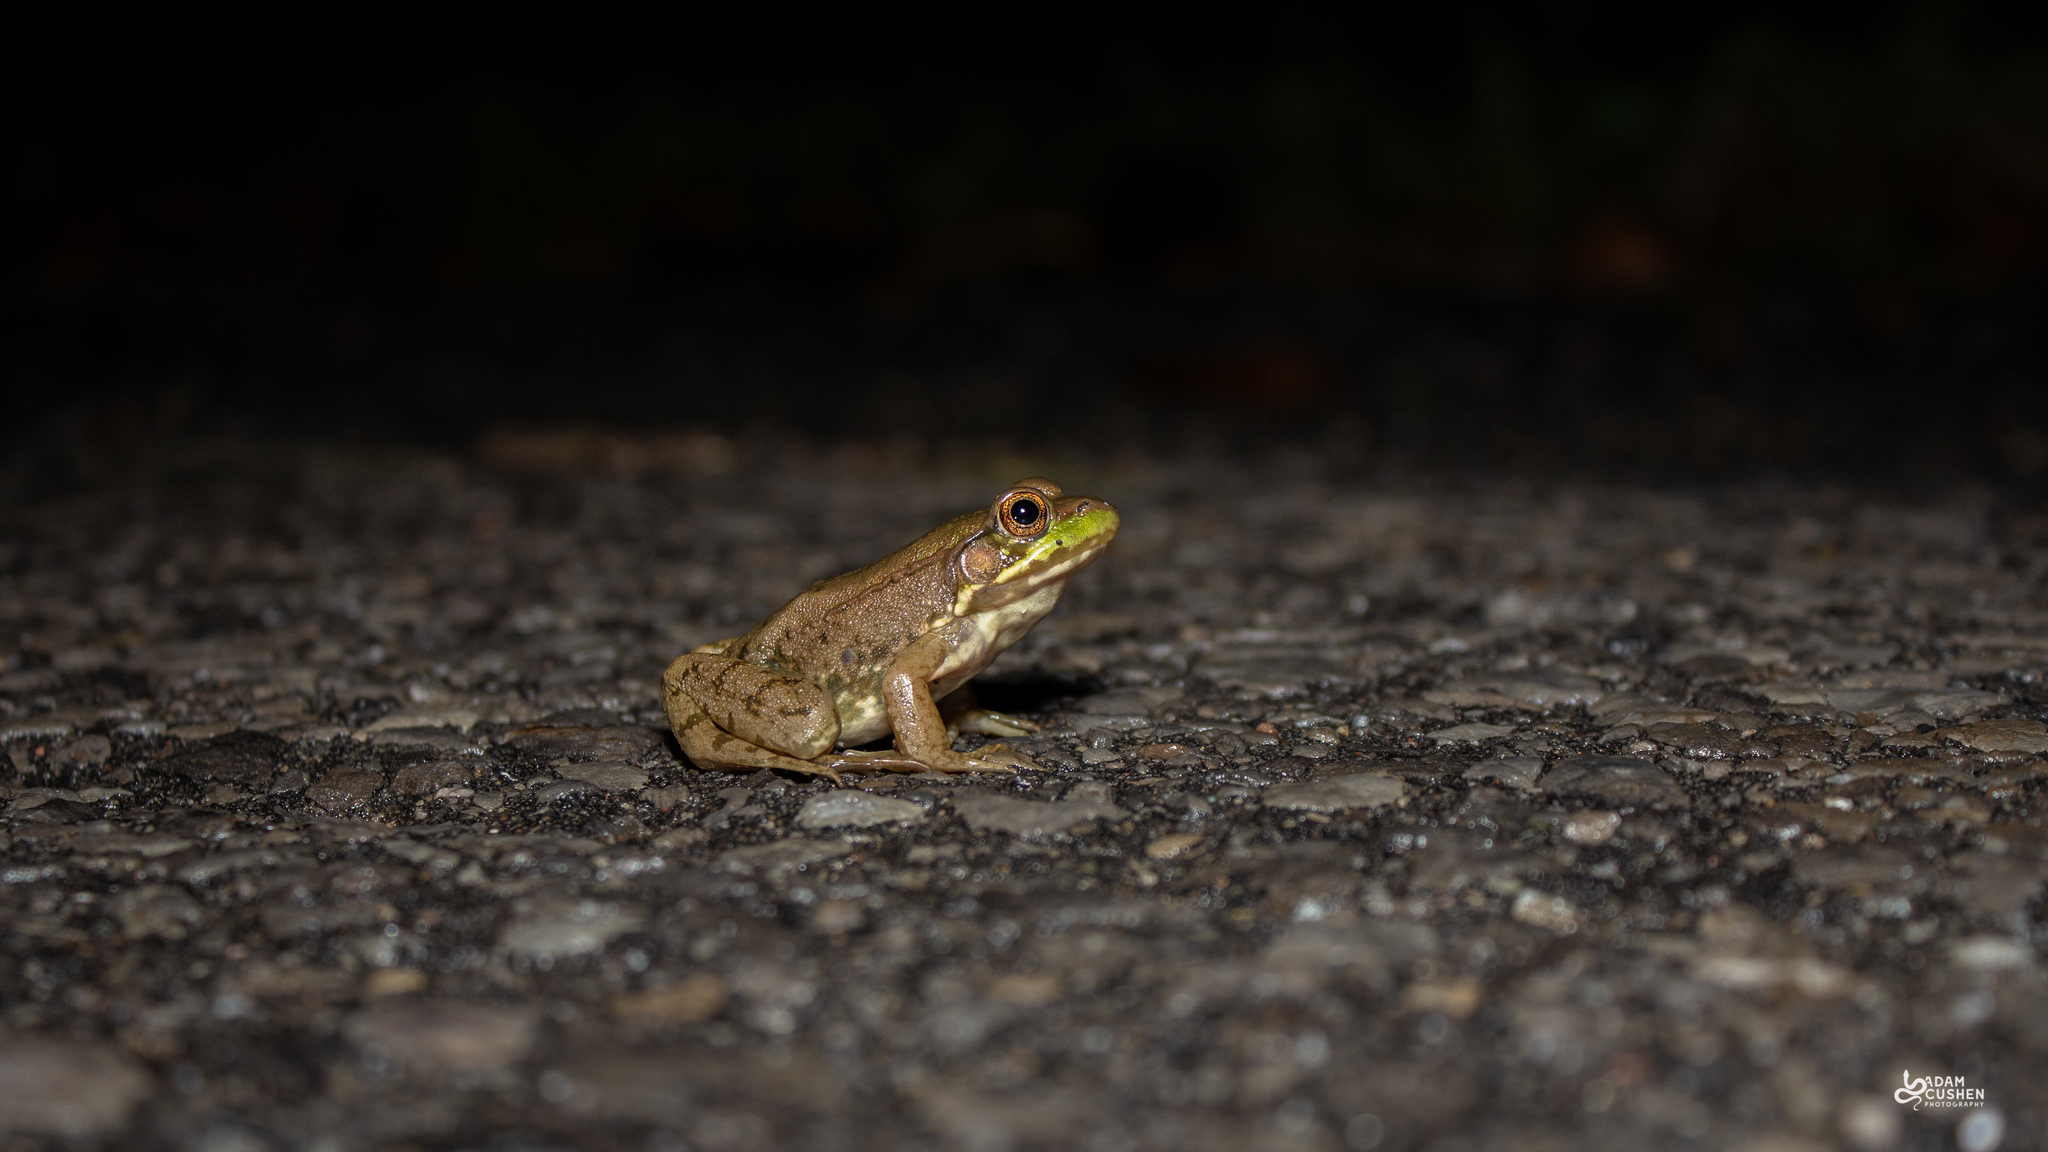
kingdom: Animalia
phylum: Chordata
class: Amphibia
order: Anura
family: Ranidae
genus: Lithobates
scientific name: Lithobates clamitans
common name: Green frog
